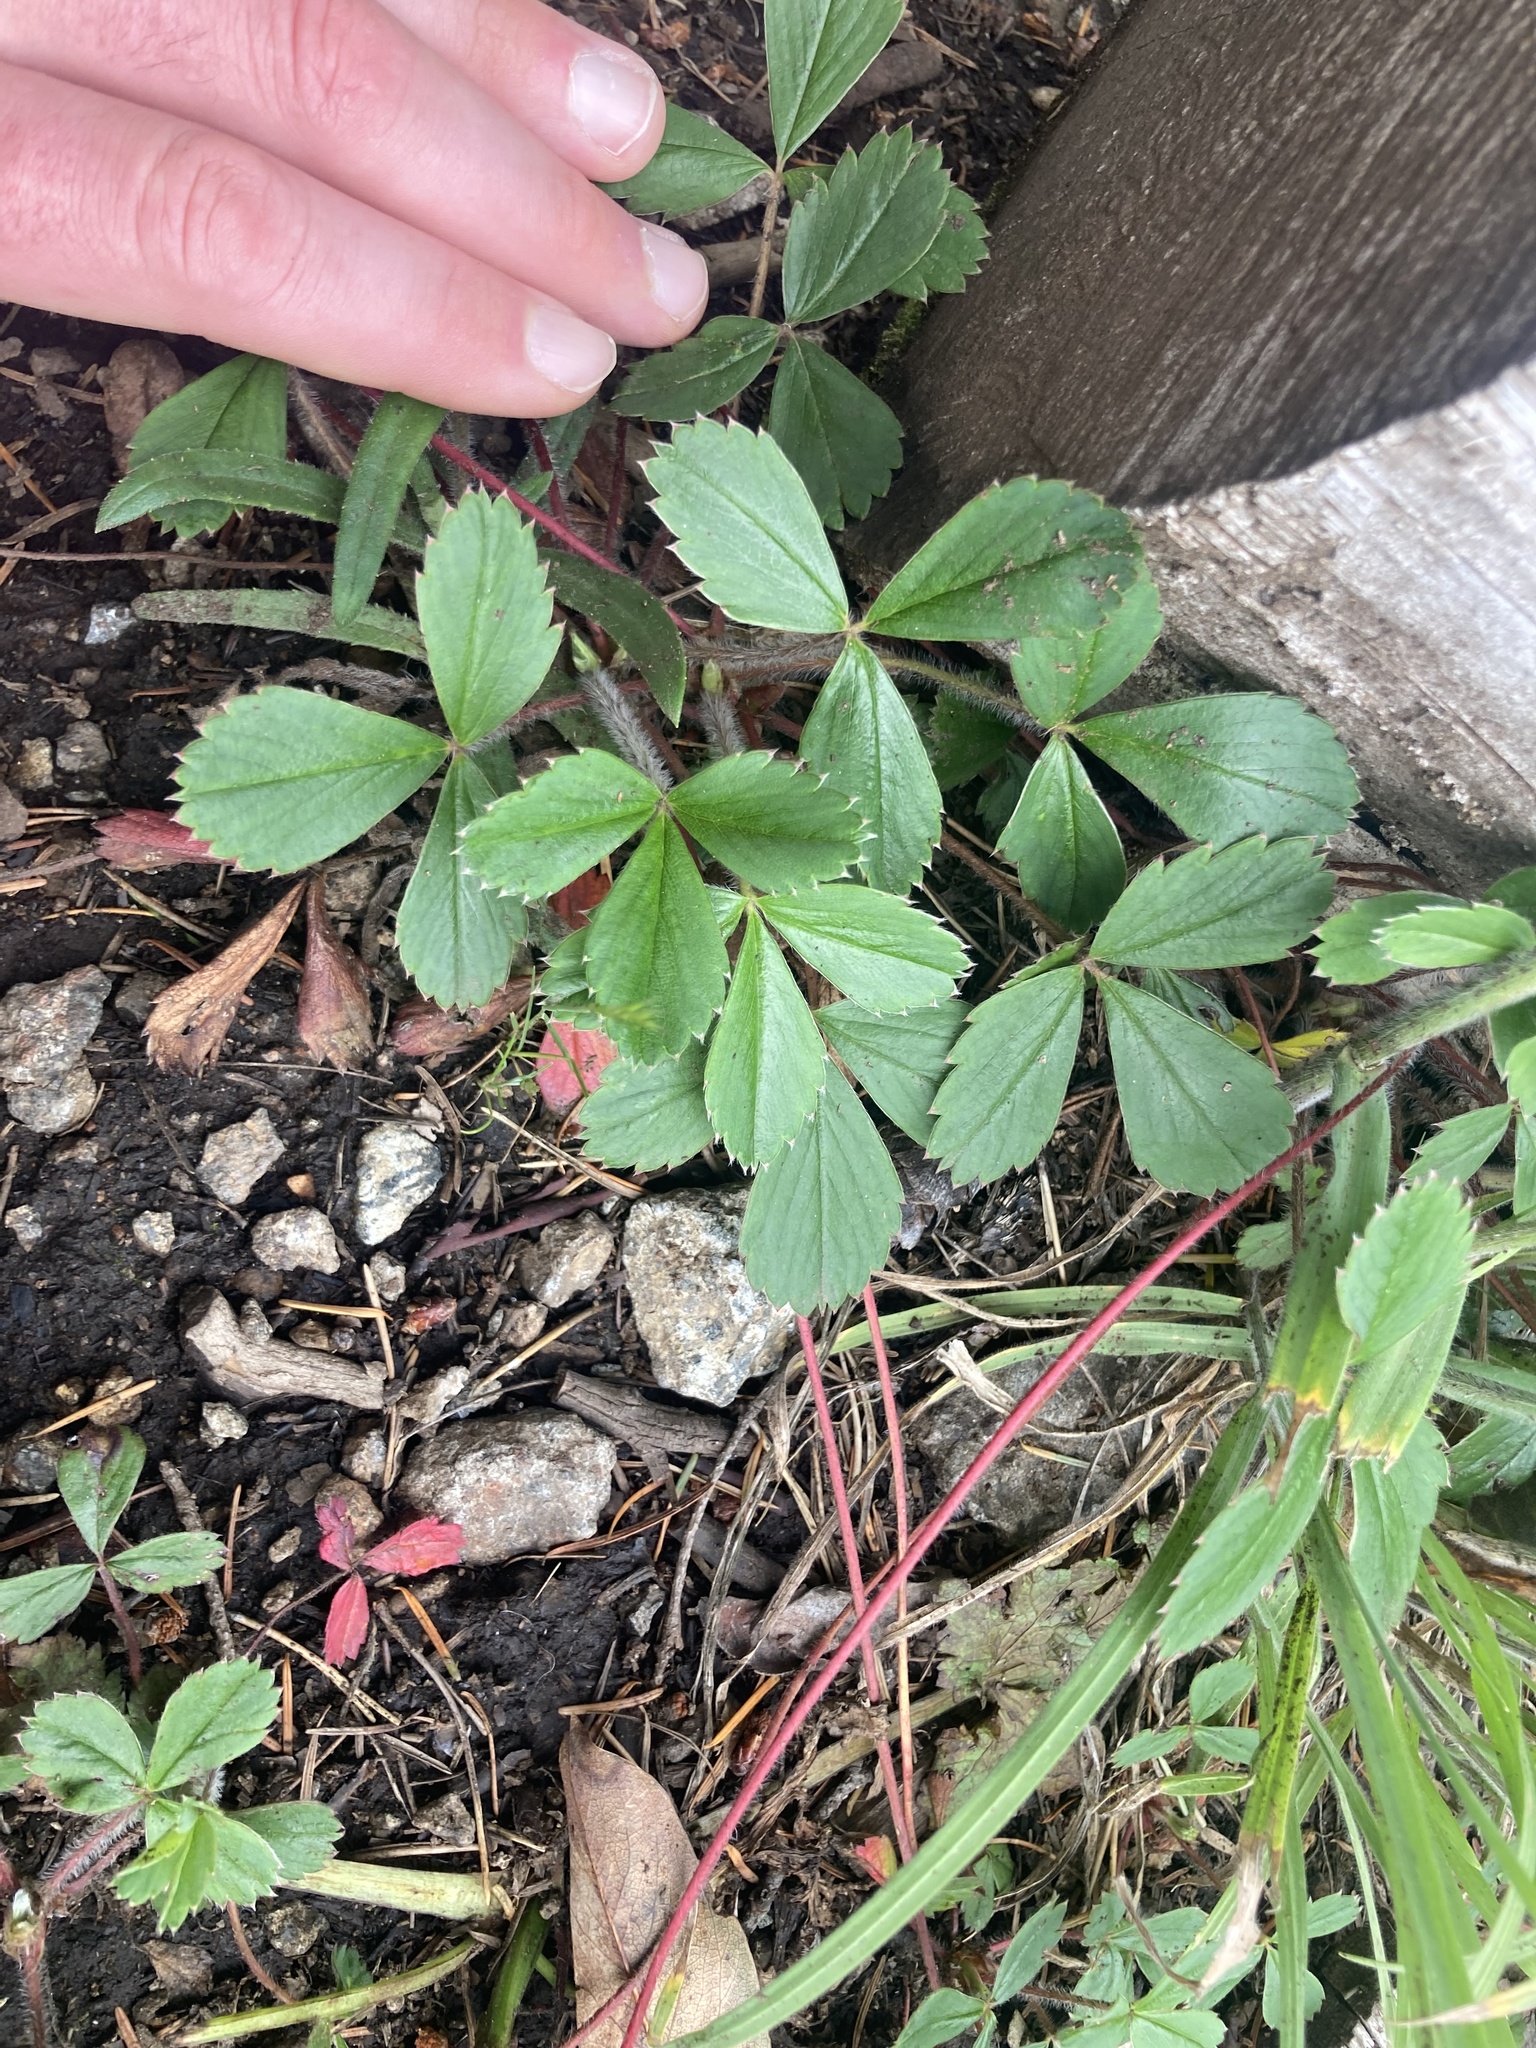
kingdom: Plantae
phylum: Tracheophyta
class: Magnoliopsida
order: Rosales
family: Rosaceae
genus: Fragaria
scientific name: Fragaria virginiana
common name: Thickleaved wild strawberry
